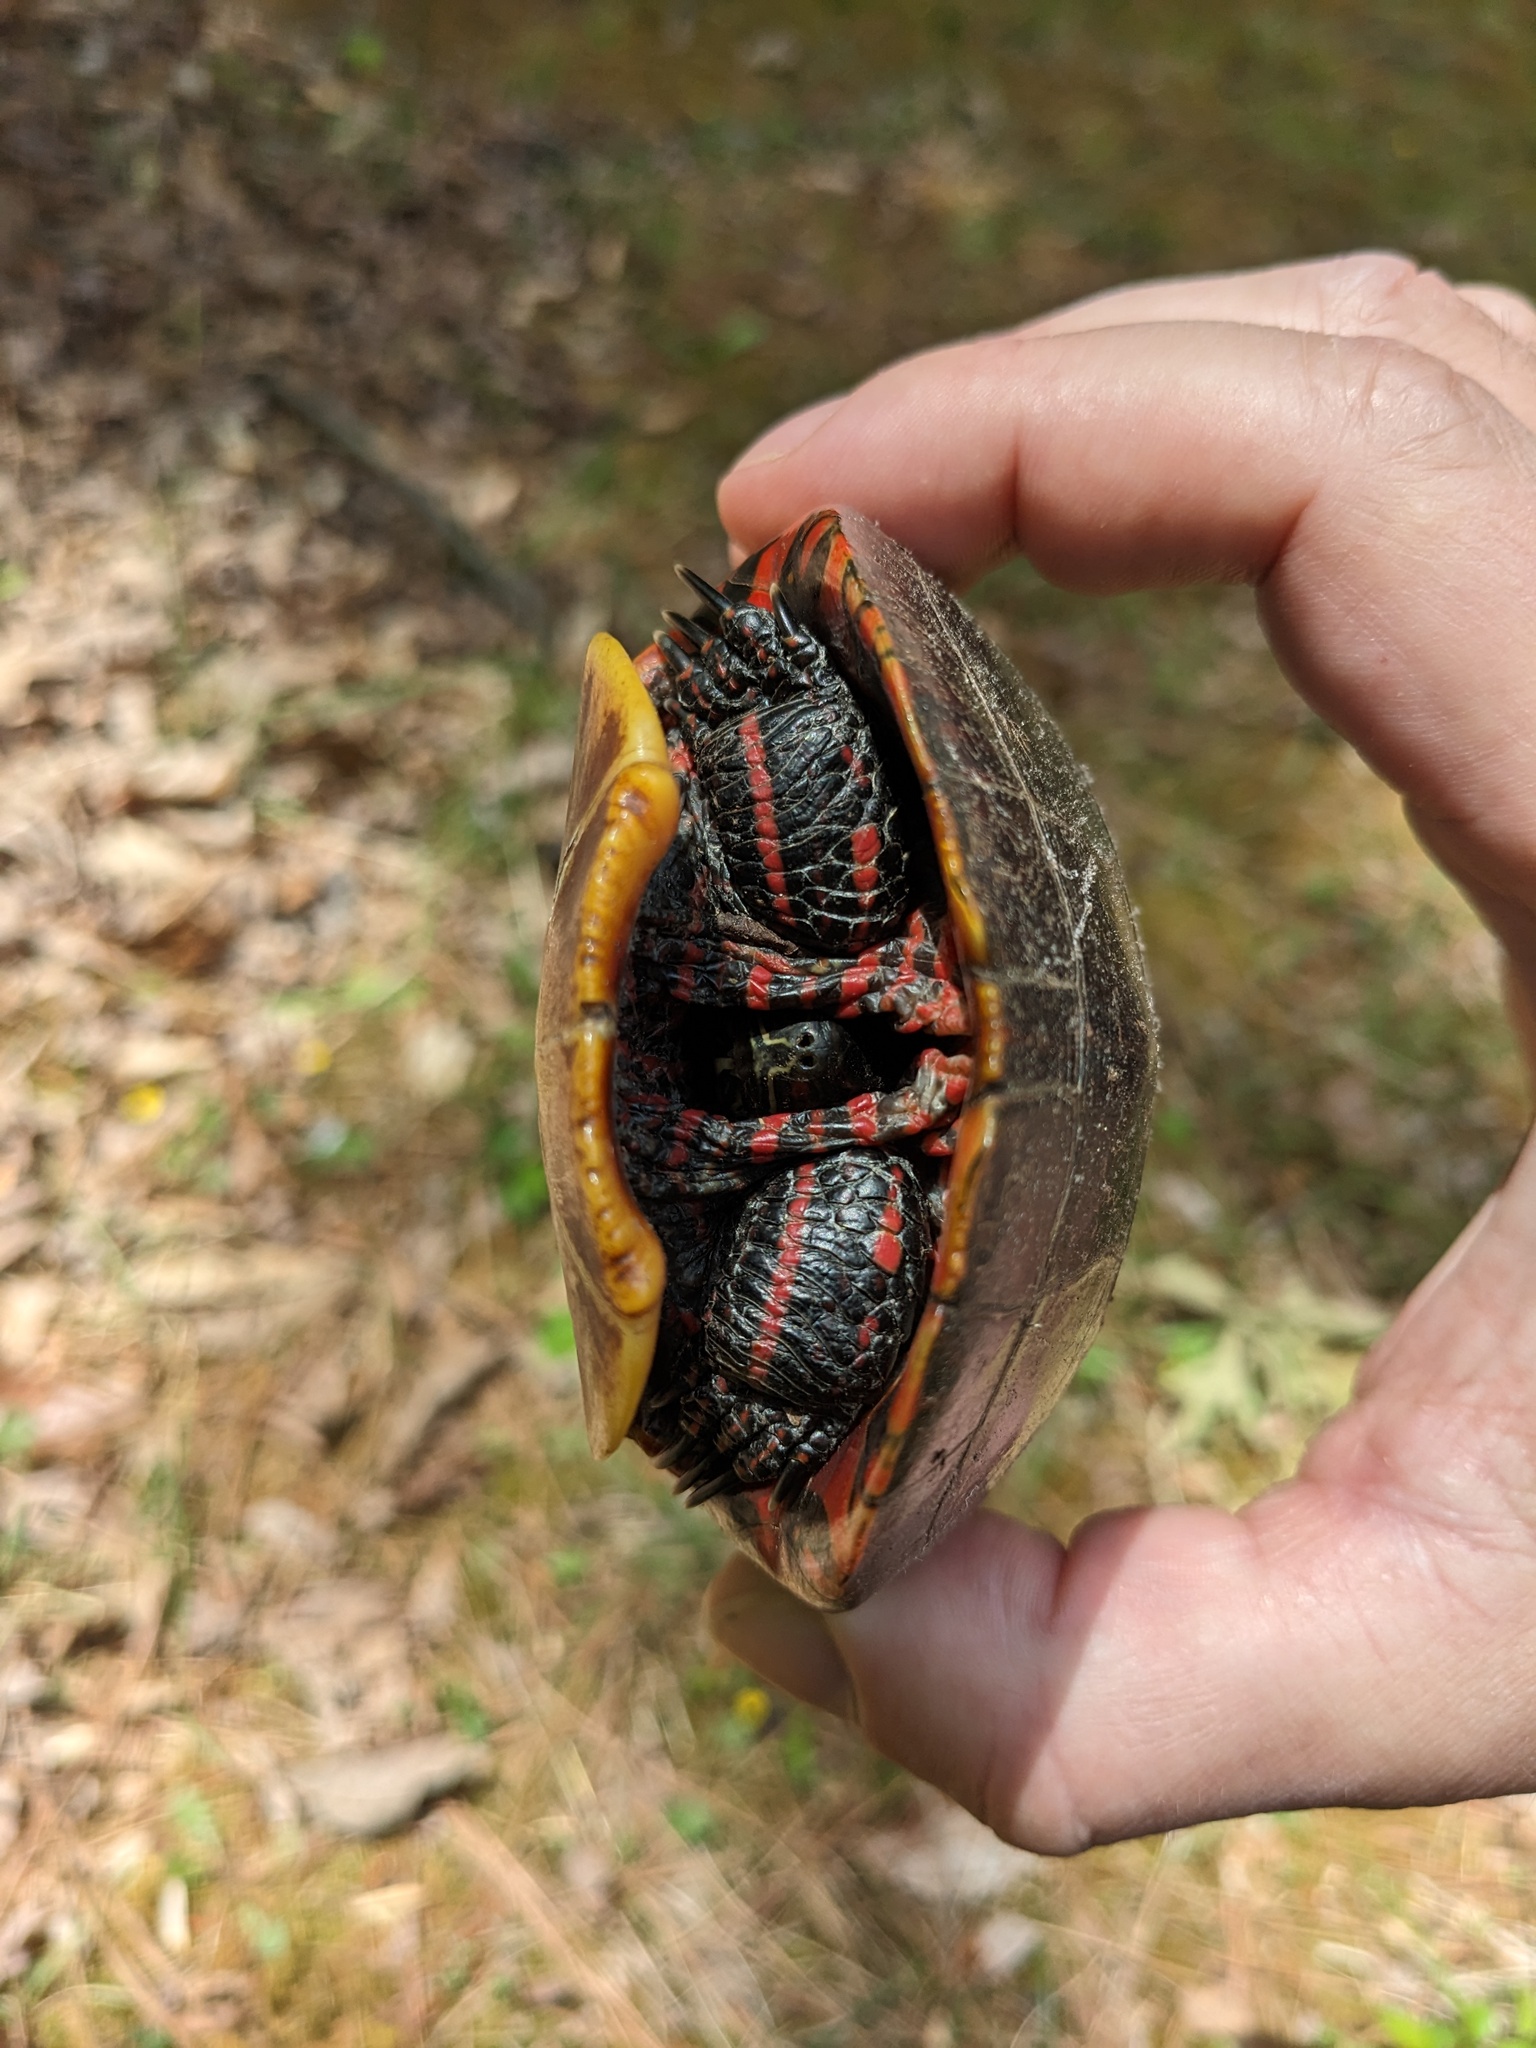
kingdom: Animalia
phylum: Chordata
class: Testudines
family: Emydidae
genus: Chrysemys
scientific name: Chrysemys picta
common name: Painted turtle
